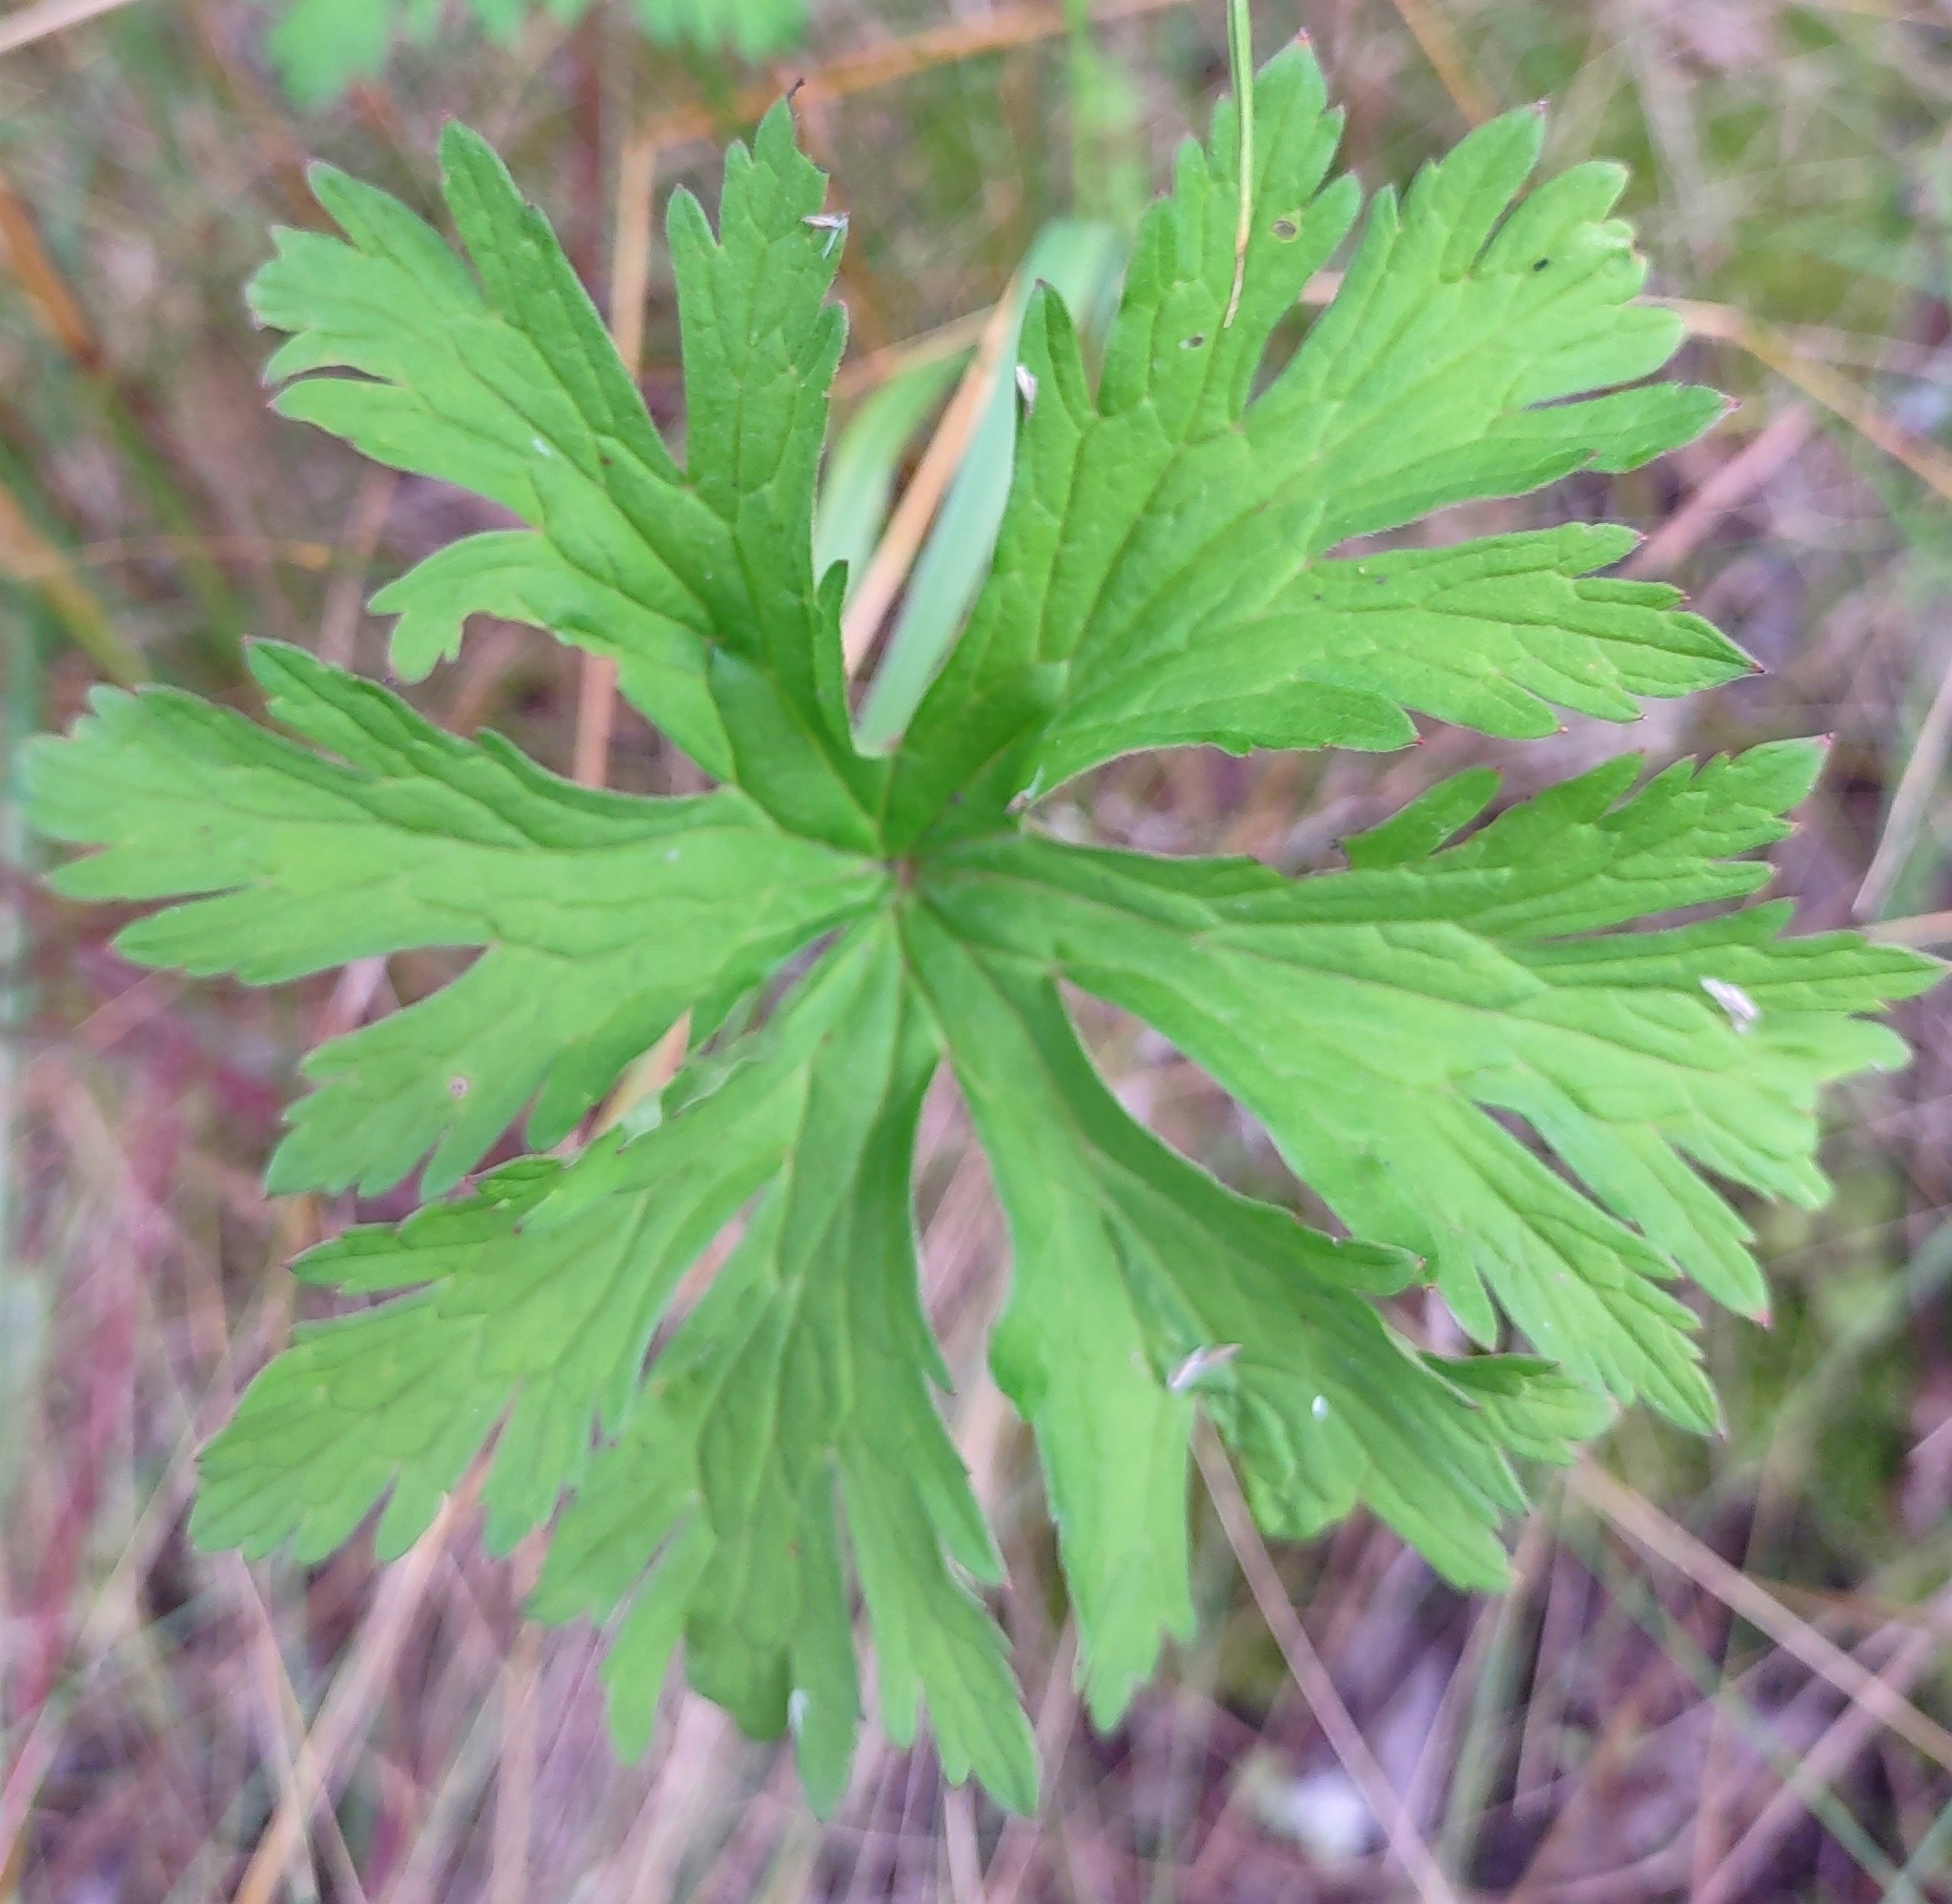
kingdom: Plantae
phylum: Tracheophyta
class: Magnoliopsida
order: Geraniales
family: Geraniaceae
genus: Geranium
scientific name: Geranium pratense
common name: Meadow crane's-bill
